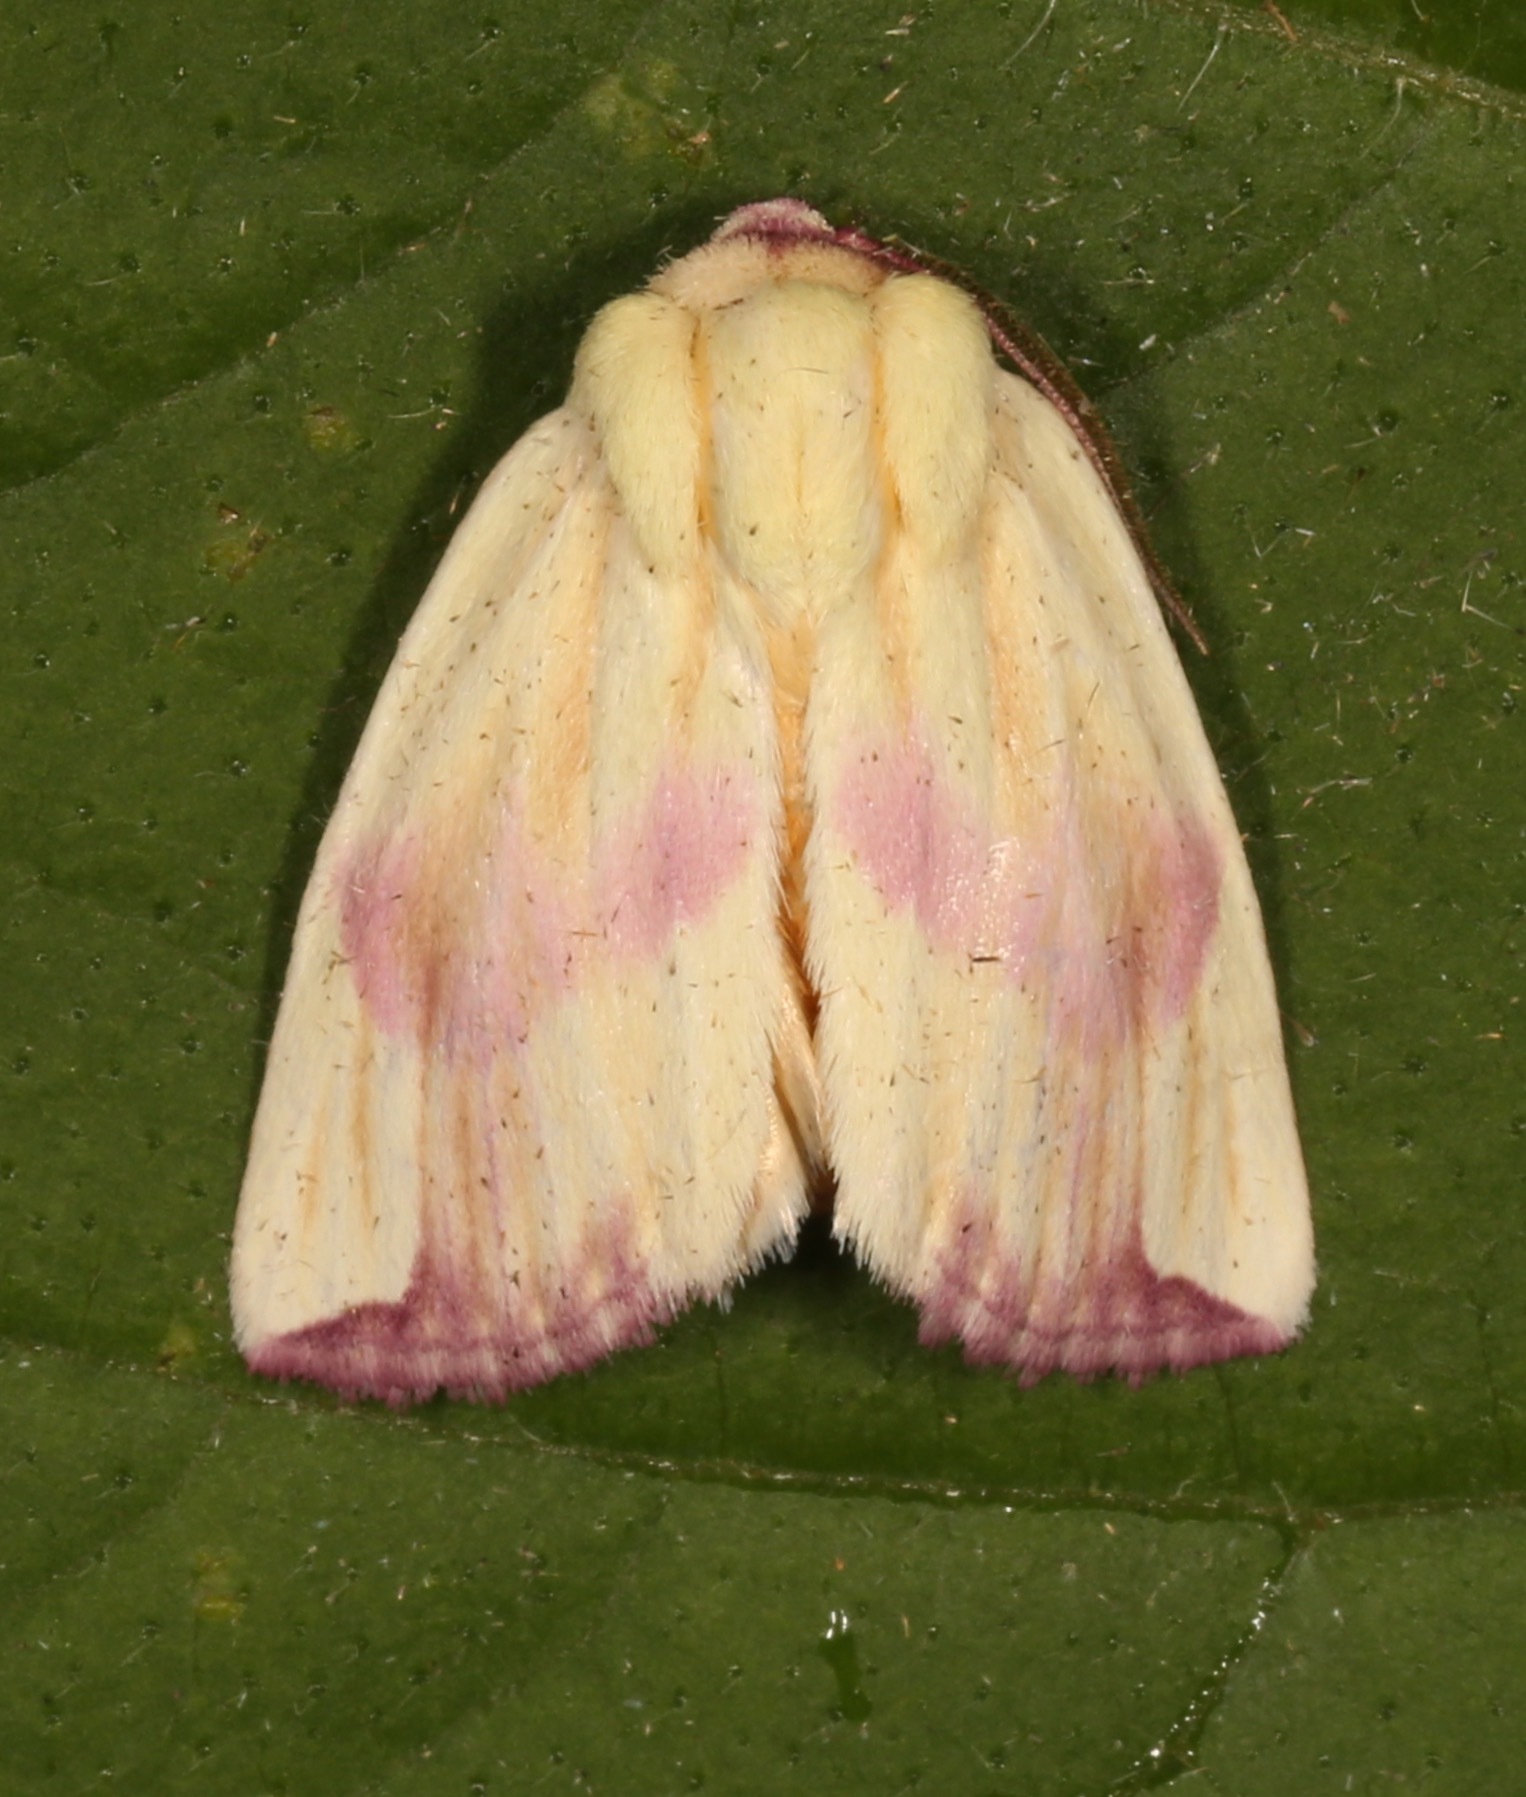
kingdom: Animalia
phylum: Arthropoda
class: Insecta
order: Lepidoptera
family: Noctuidae
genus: Thurberiphaga
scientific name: Thurberiphaga diffusa
